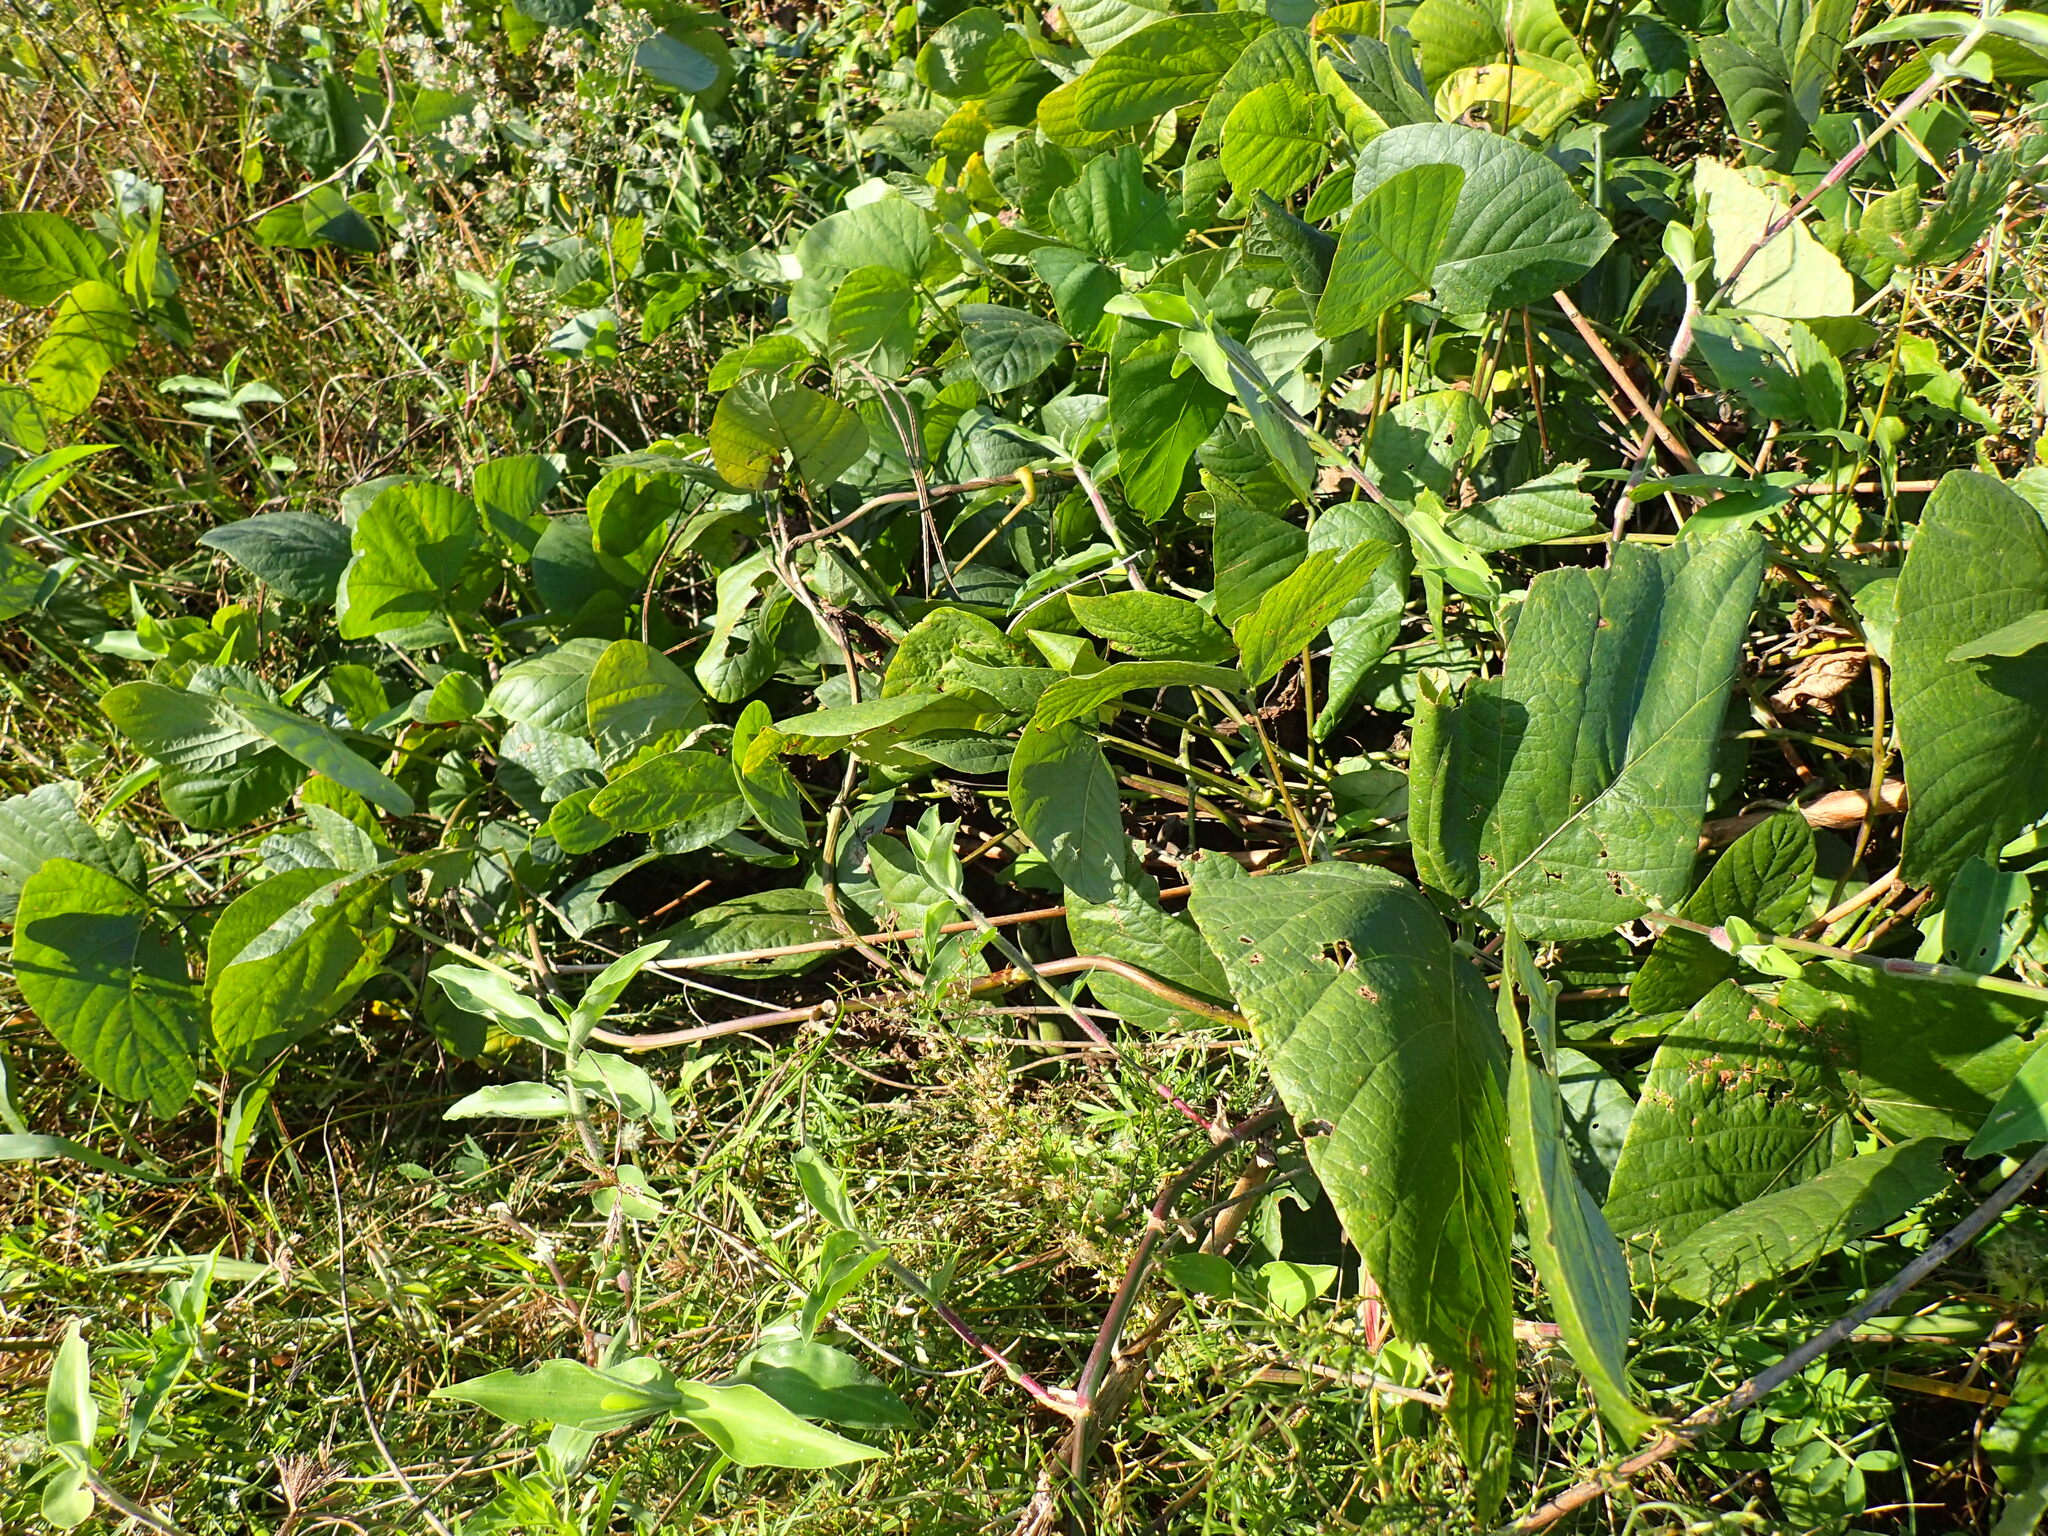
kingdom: Plantae
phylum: Tracheophyta
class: Magnoliopsida
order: Fabales
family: Fabaceae
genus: Mucuna
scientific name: Mucuna pruriens
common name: Cow-itch
